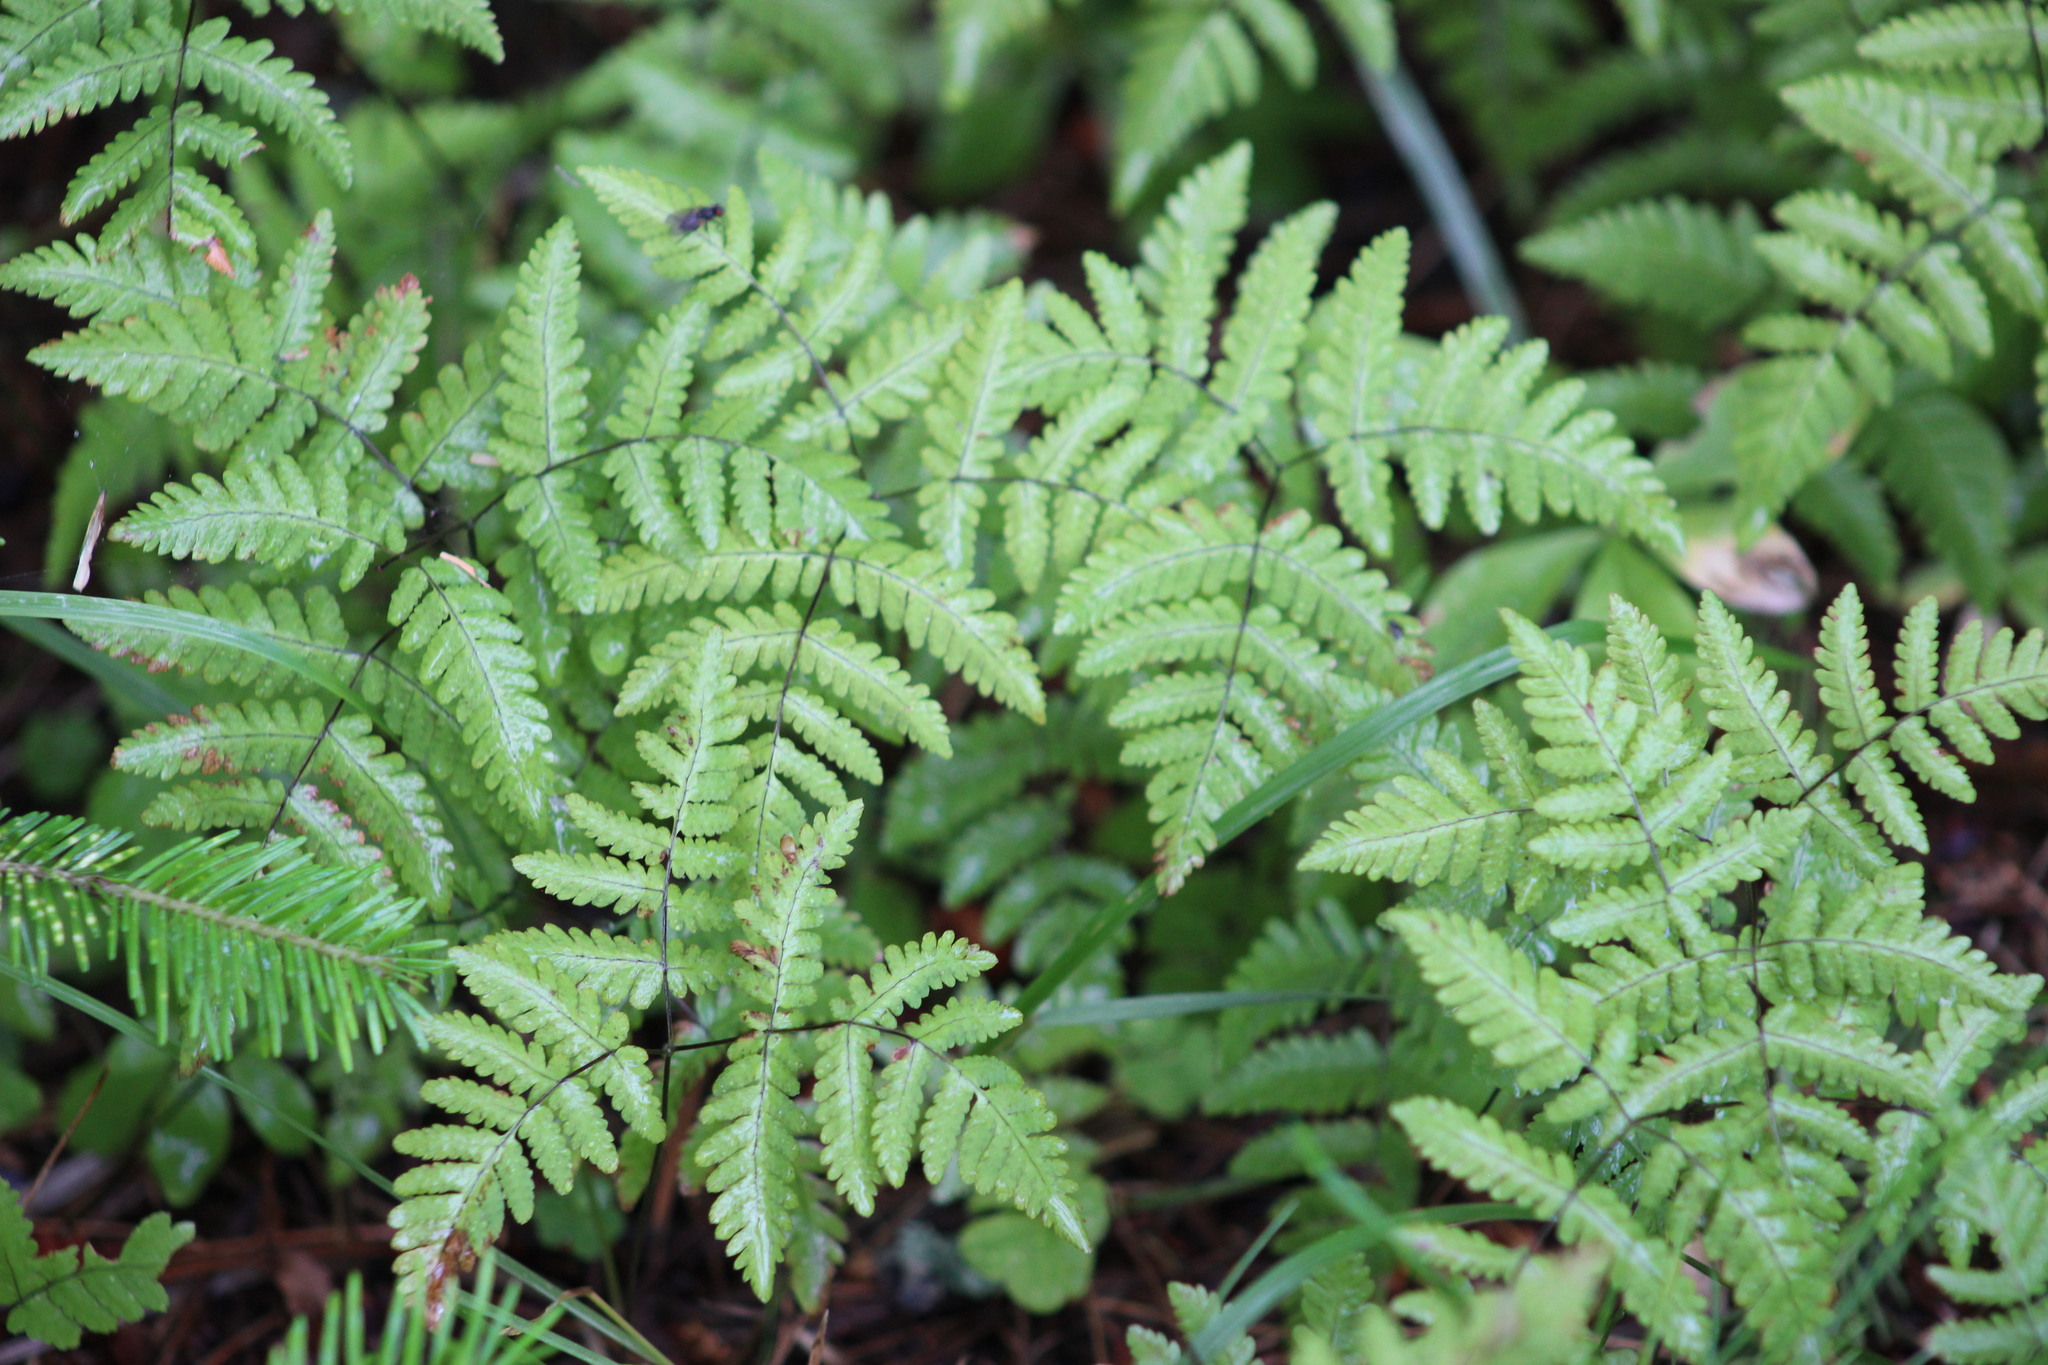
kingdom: Plantae
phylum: Tracheophyta
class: Polypodiopsida
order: Polypodiales
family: Cystopteridaceae
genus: Gymnocarpium
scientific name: Gymnocarpium dryopteris
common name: Oak fern
